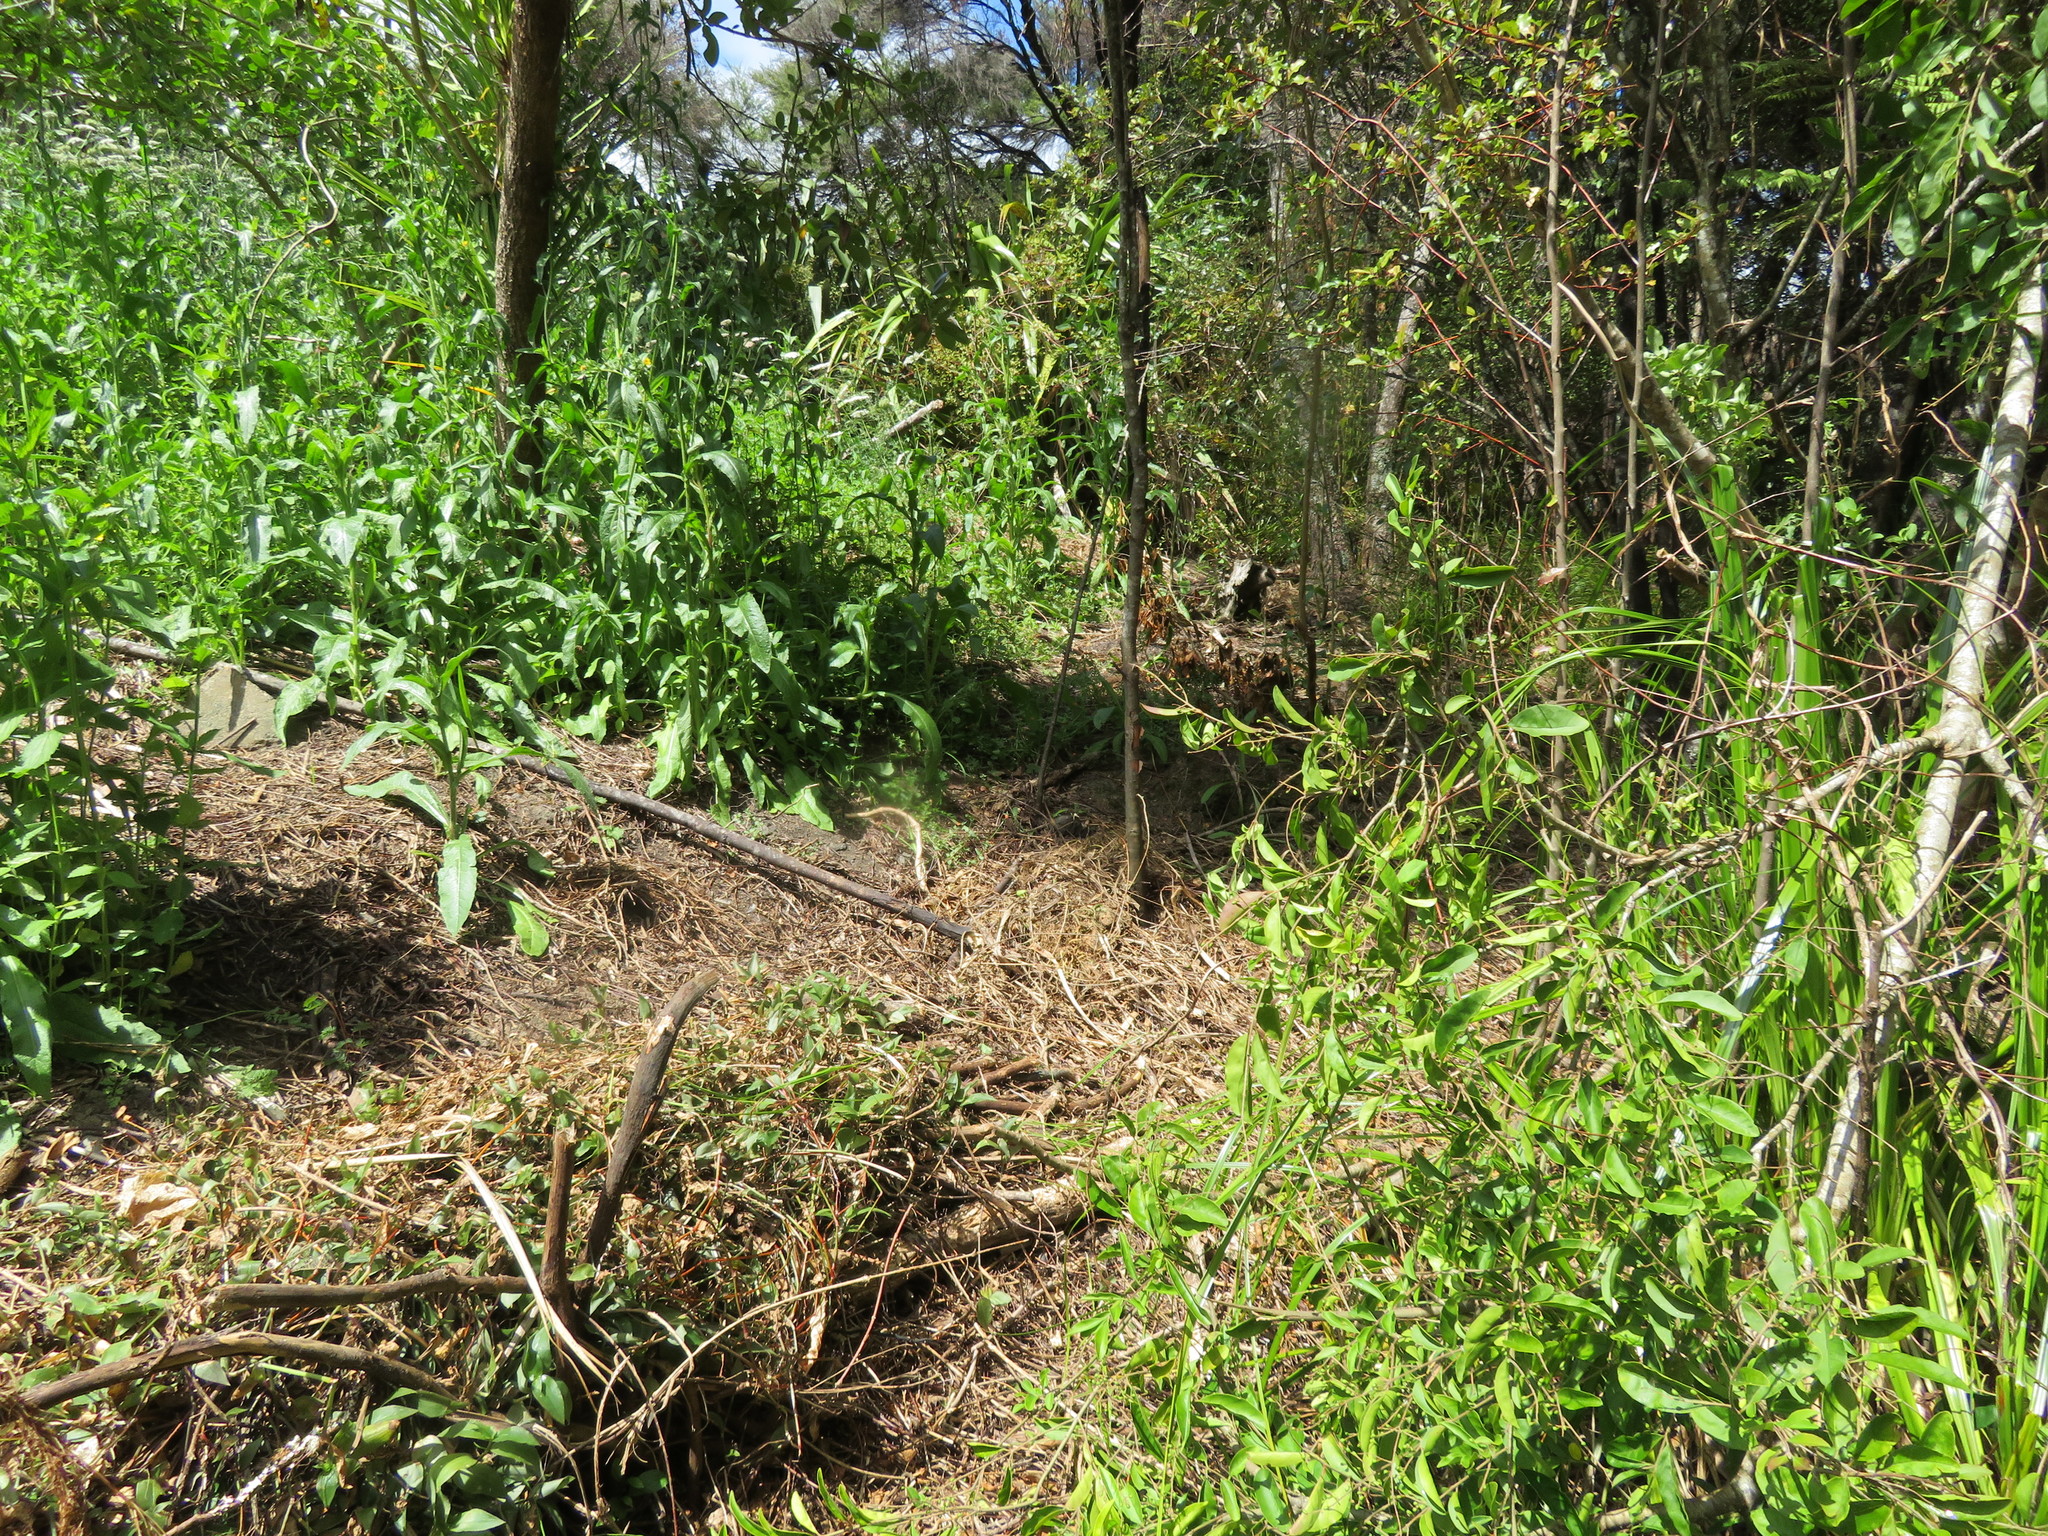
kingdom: Plantae
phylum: Tracheophyta
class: Liliopsida
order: Commelinales
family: Commelinaceae
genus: Tradescantia
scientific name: Tradescantia fluminensis
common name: Wandering-jew
